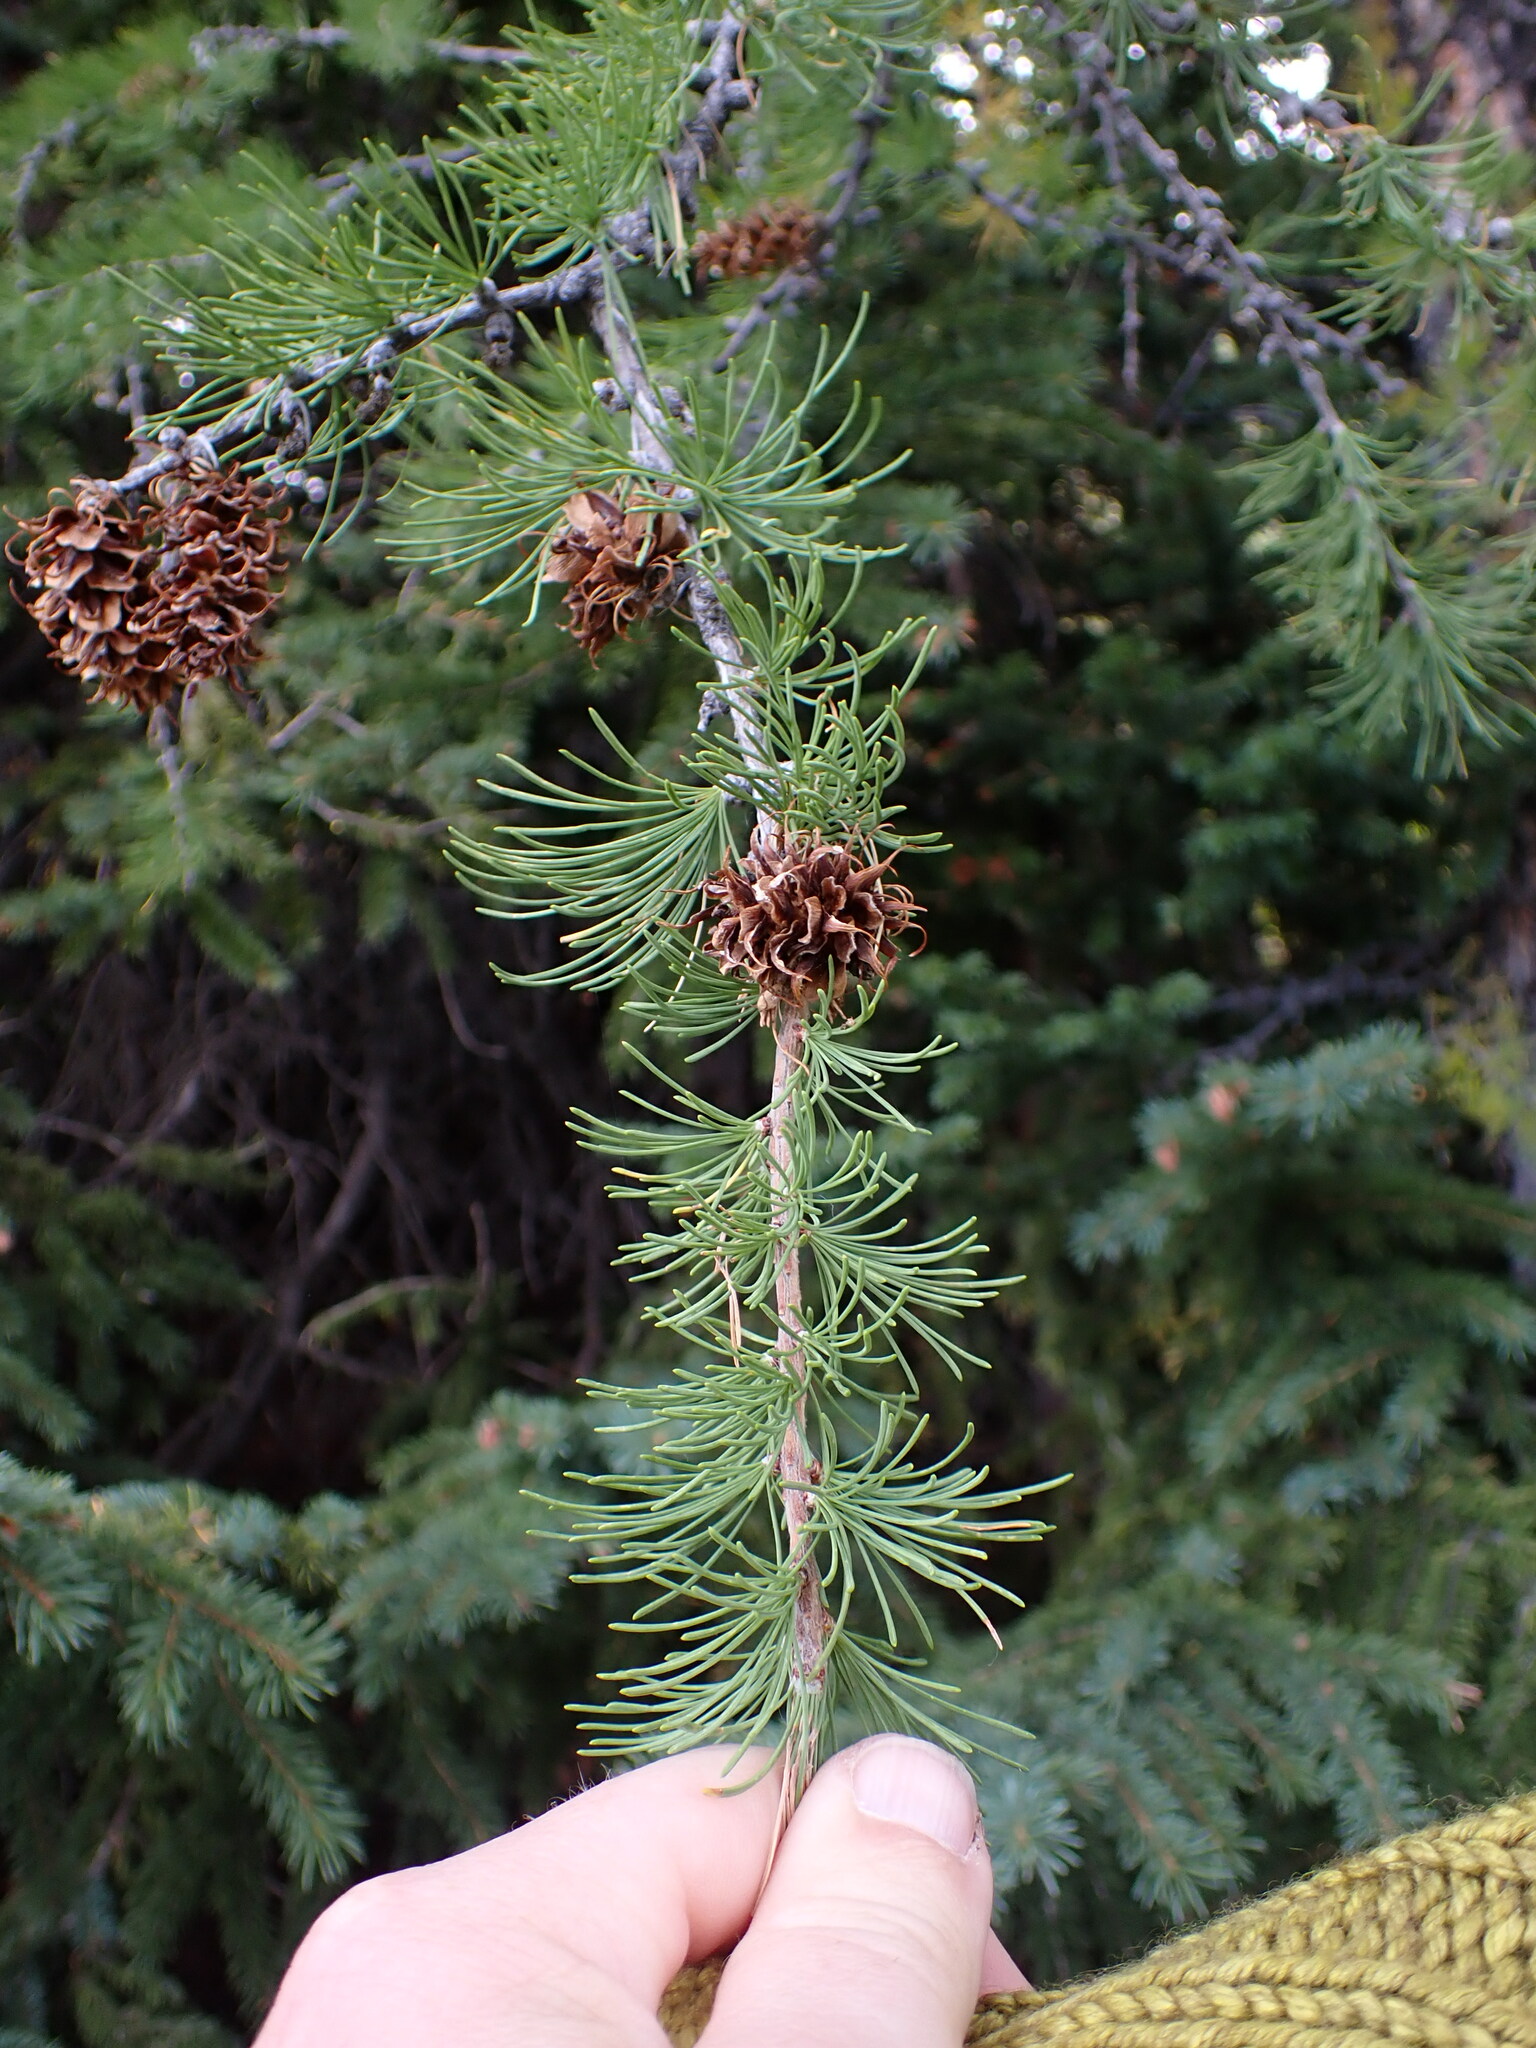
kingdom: Plantae
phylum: Tracheophyta
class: Pinopsida
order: Pinales
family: Pinaceae
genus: Larix
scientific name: Larix lyallii
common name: Alpine larch
